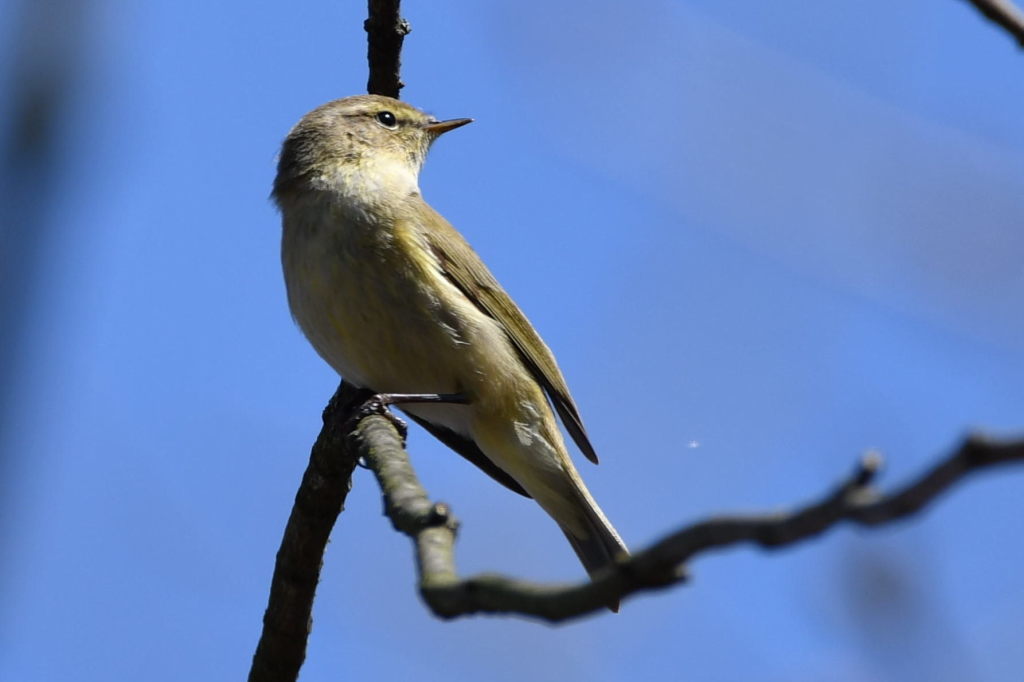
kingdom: Animalia
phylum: Chordata
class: Aves
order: Passeriformes
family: Phylloscopidae
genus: Phylloscopus
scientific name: Phylloscopus collybita
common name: Common chiffchaff
